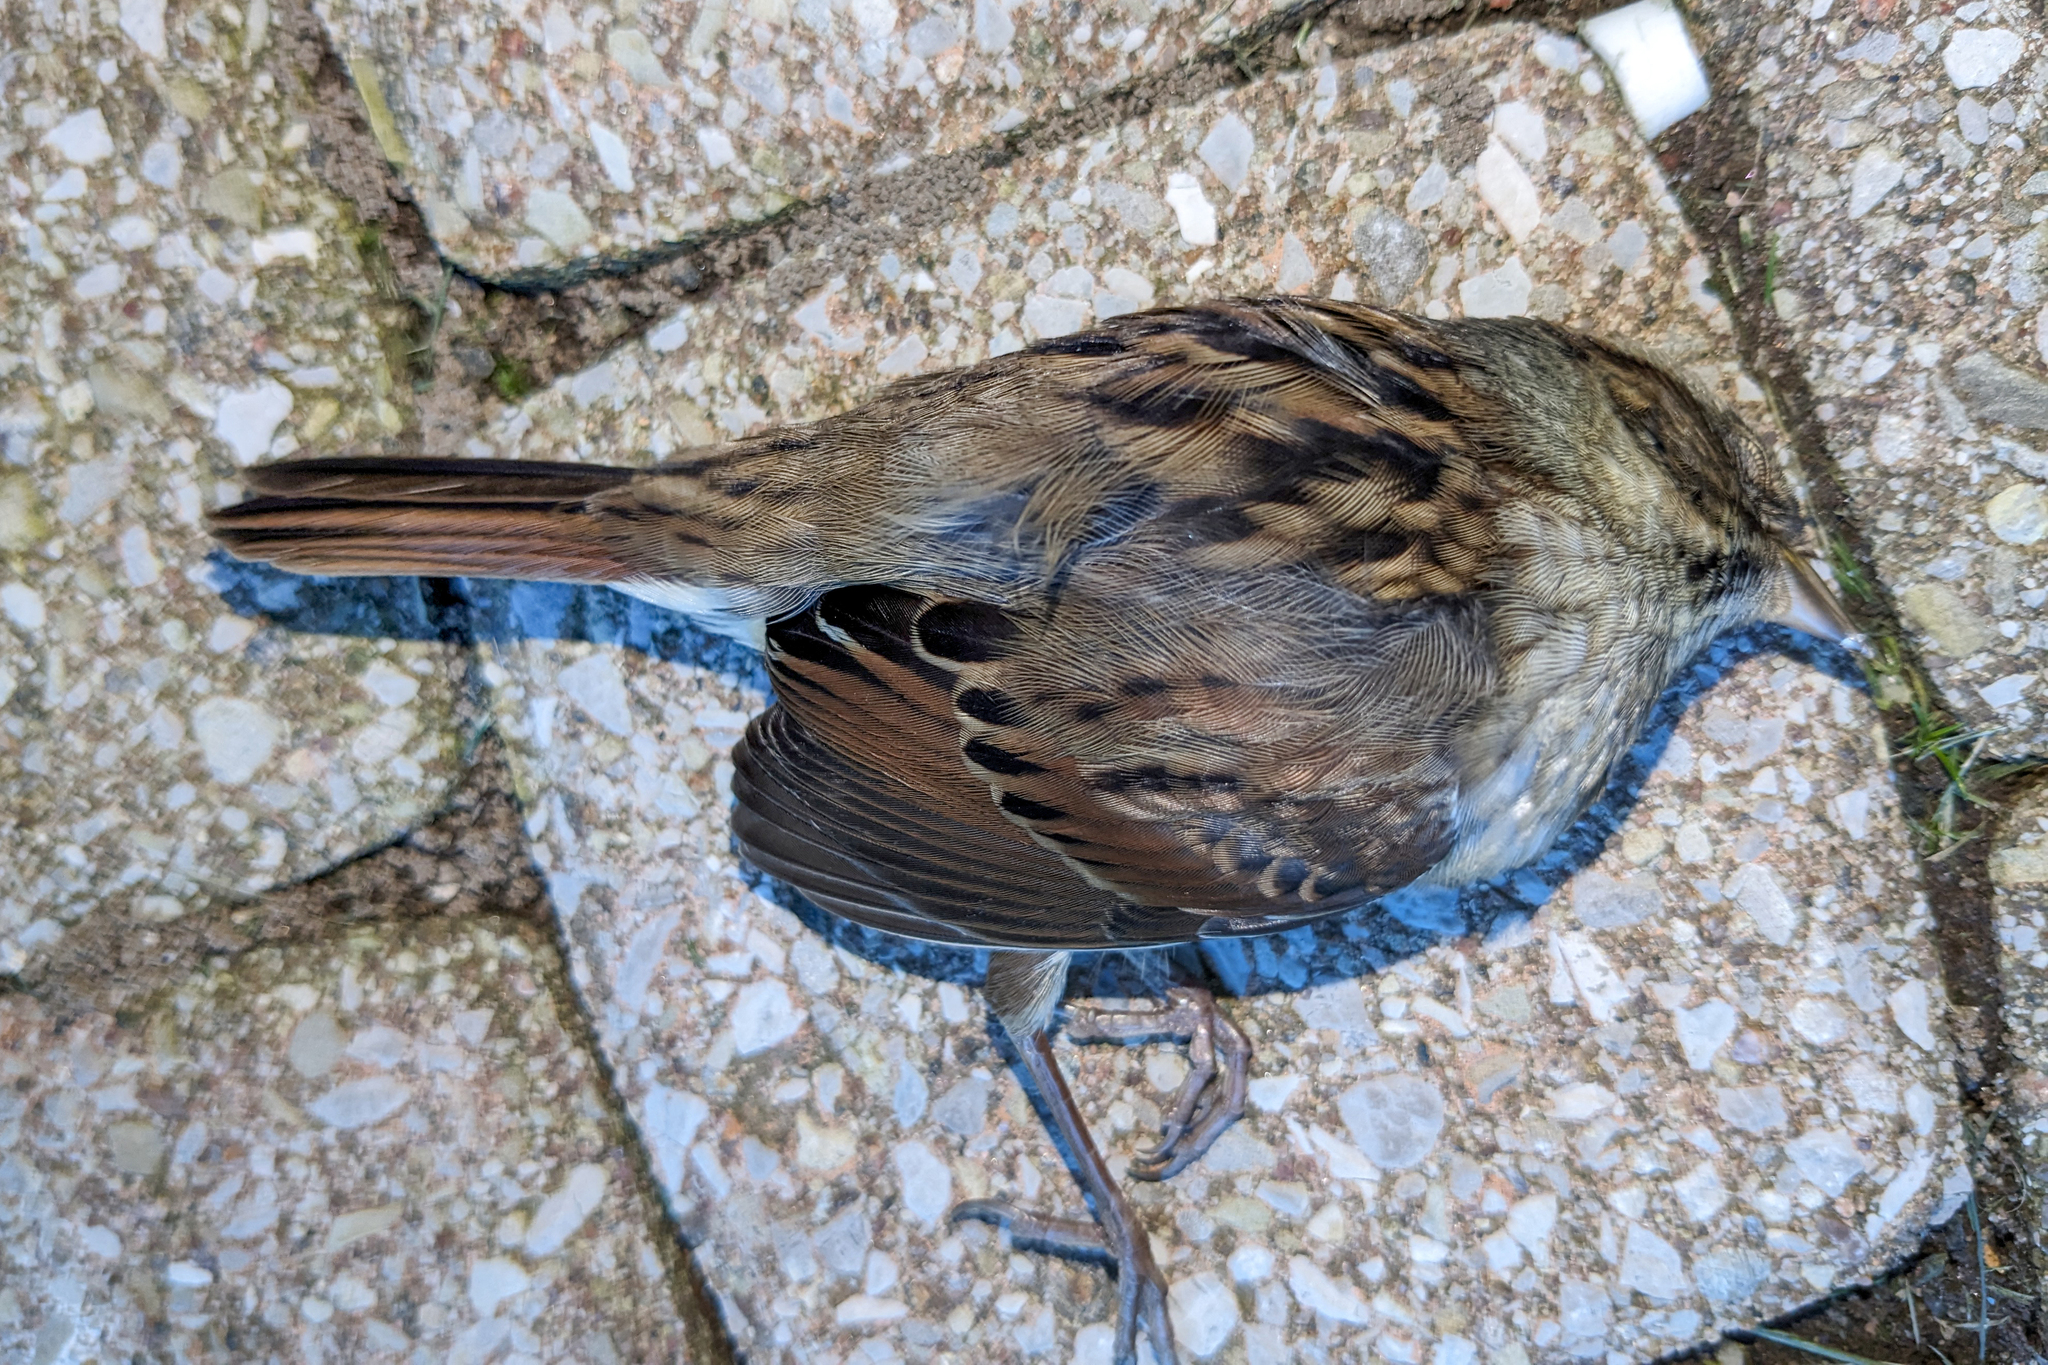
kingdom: Animalia
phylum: Chordata
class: Aves
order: Passeriformes
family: Passerellidae
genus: Melospiza
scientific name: Melospiza georgiana
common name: Swamp sparrow
